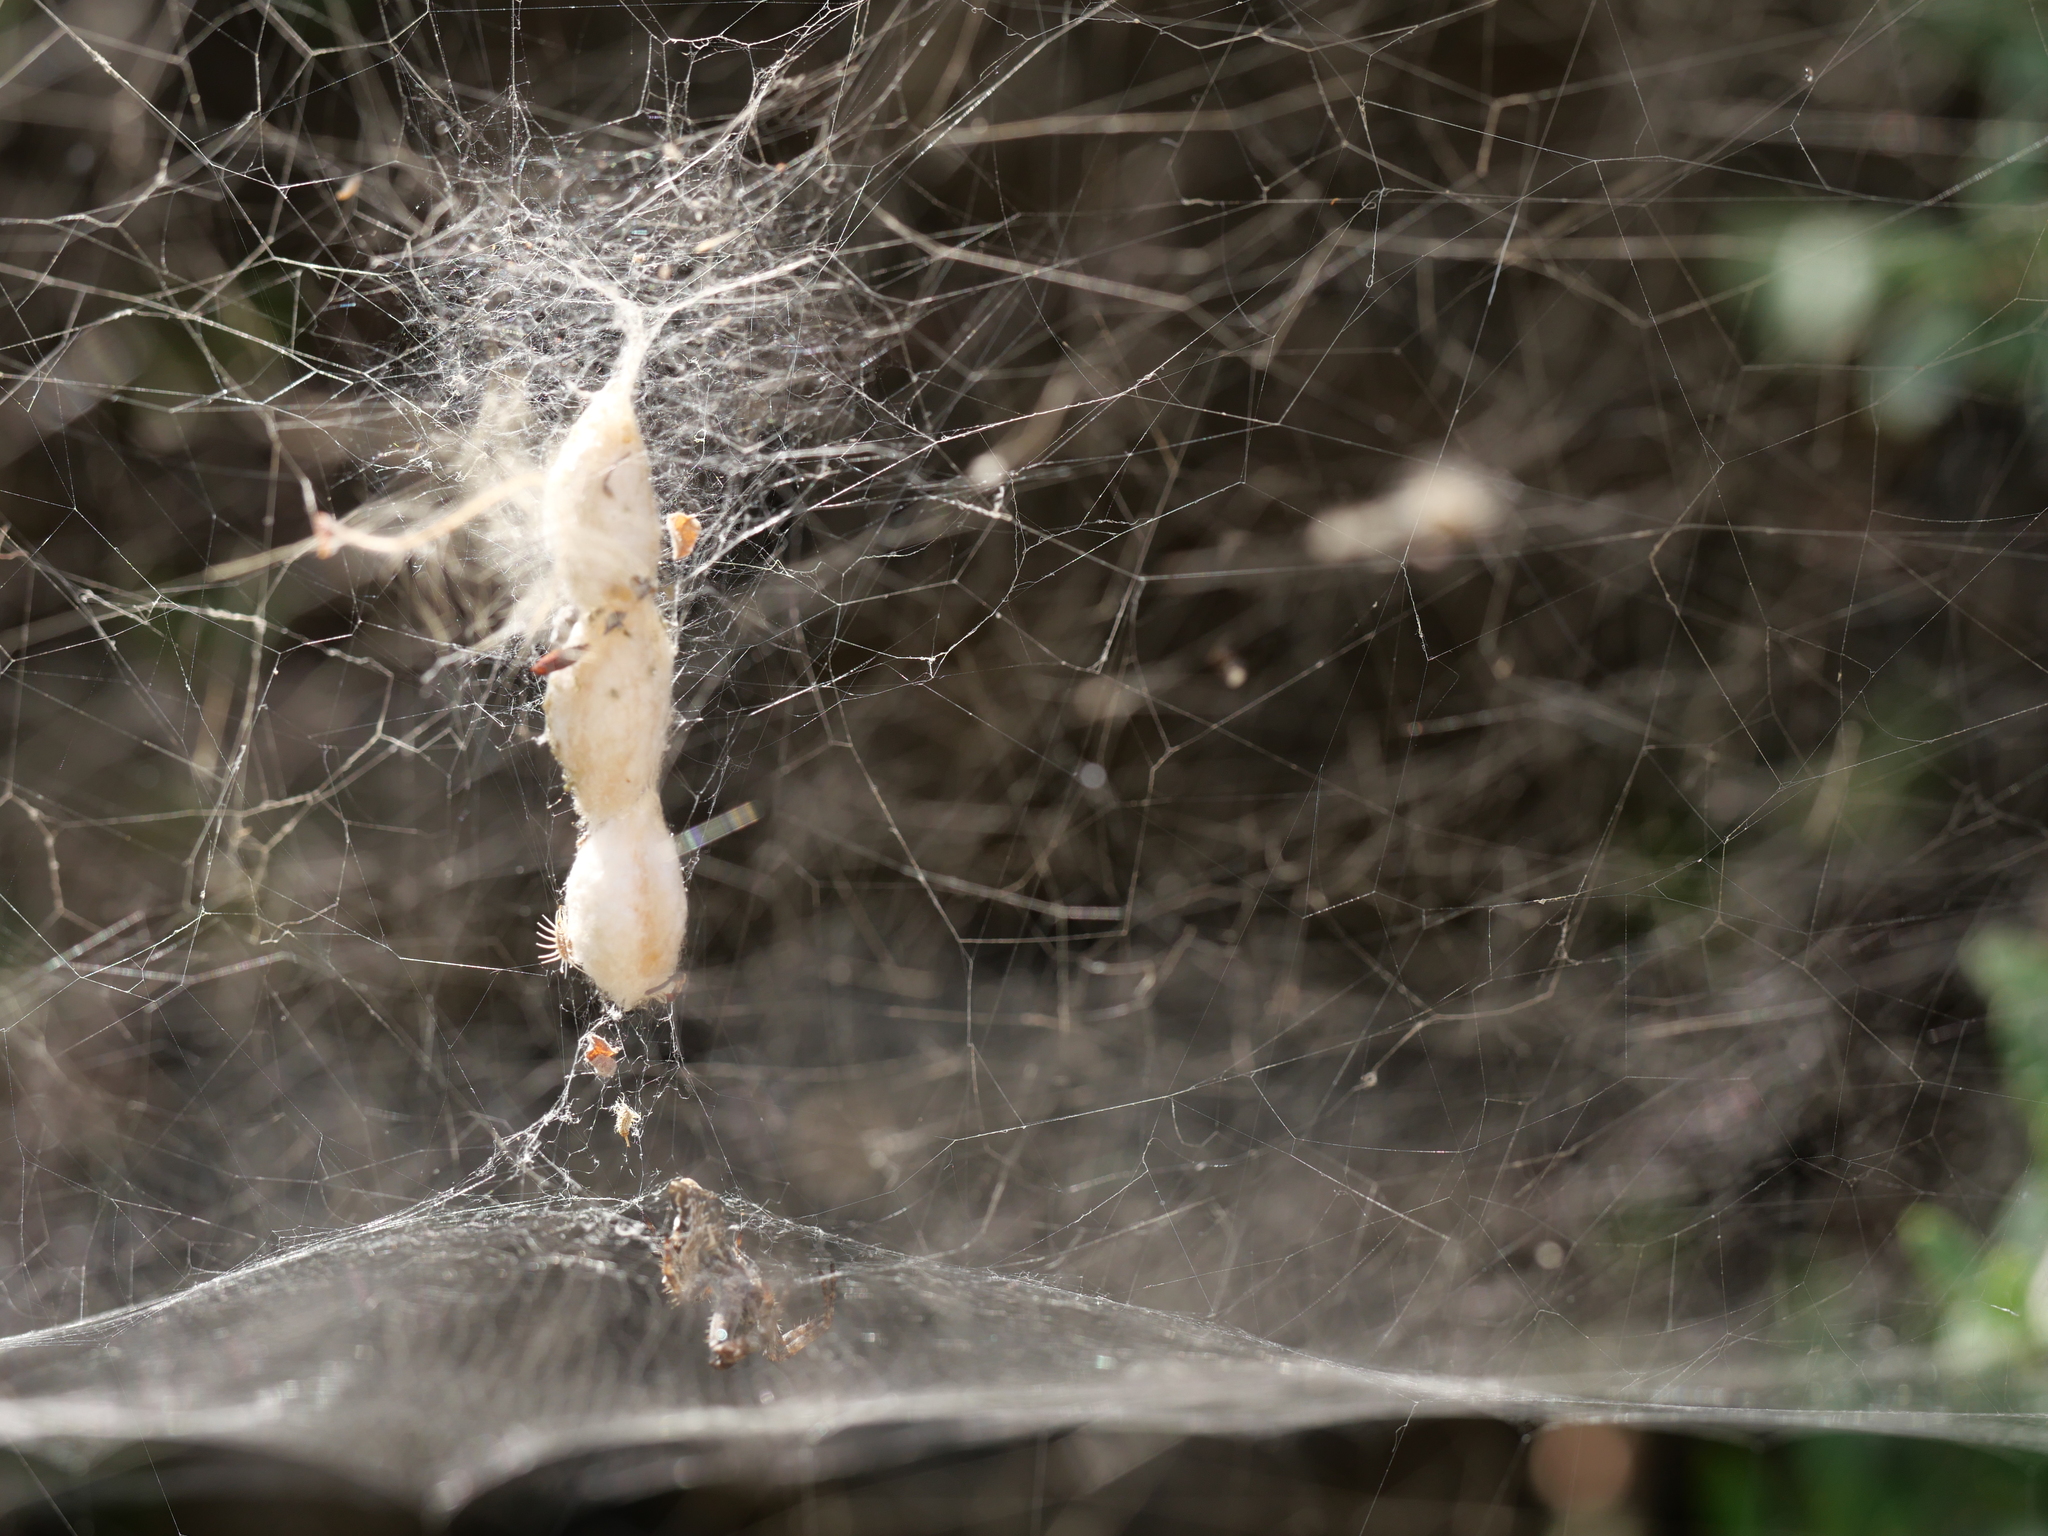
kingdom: Animalia
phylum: Arthropoda
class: Arachnida
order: Araneae
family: Araneidae
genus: Cyrtophora
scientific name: Cyrtophora citricola
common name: Orb weavers
